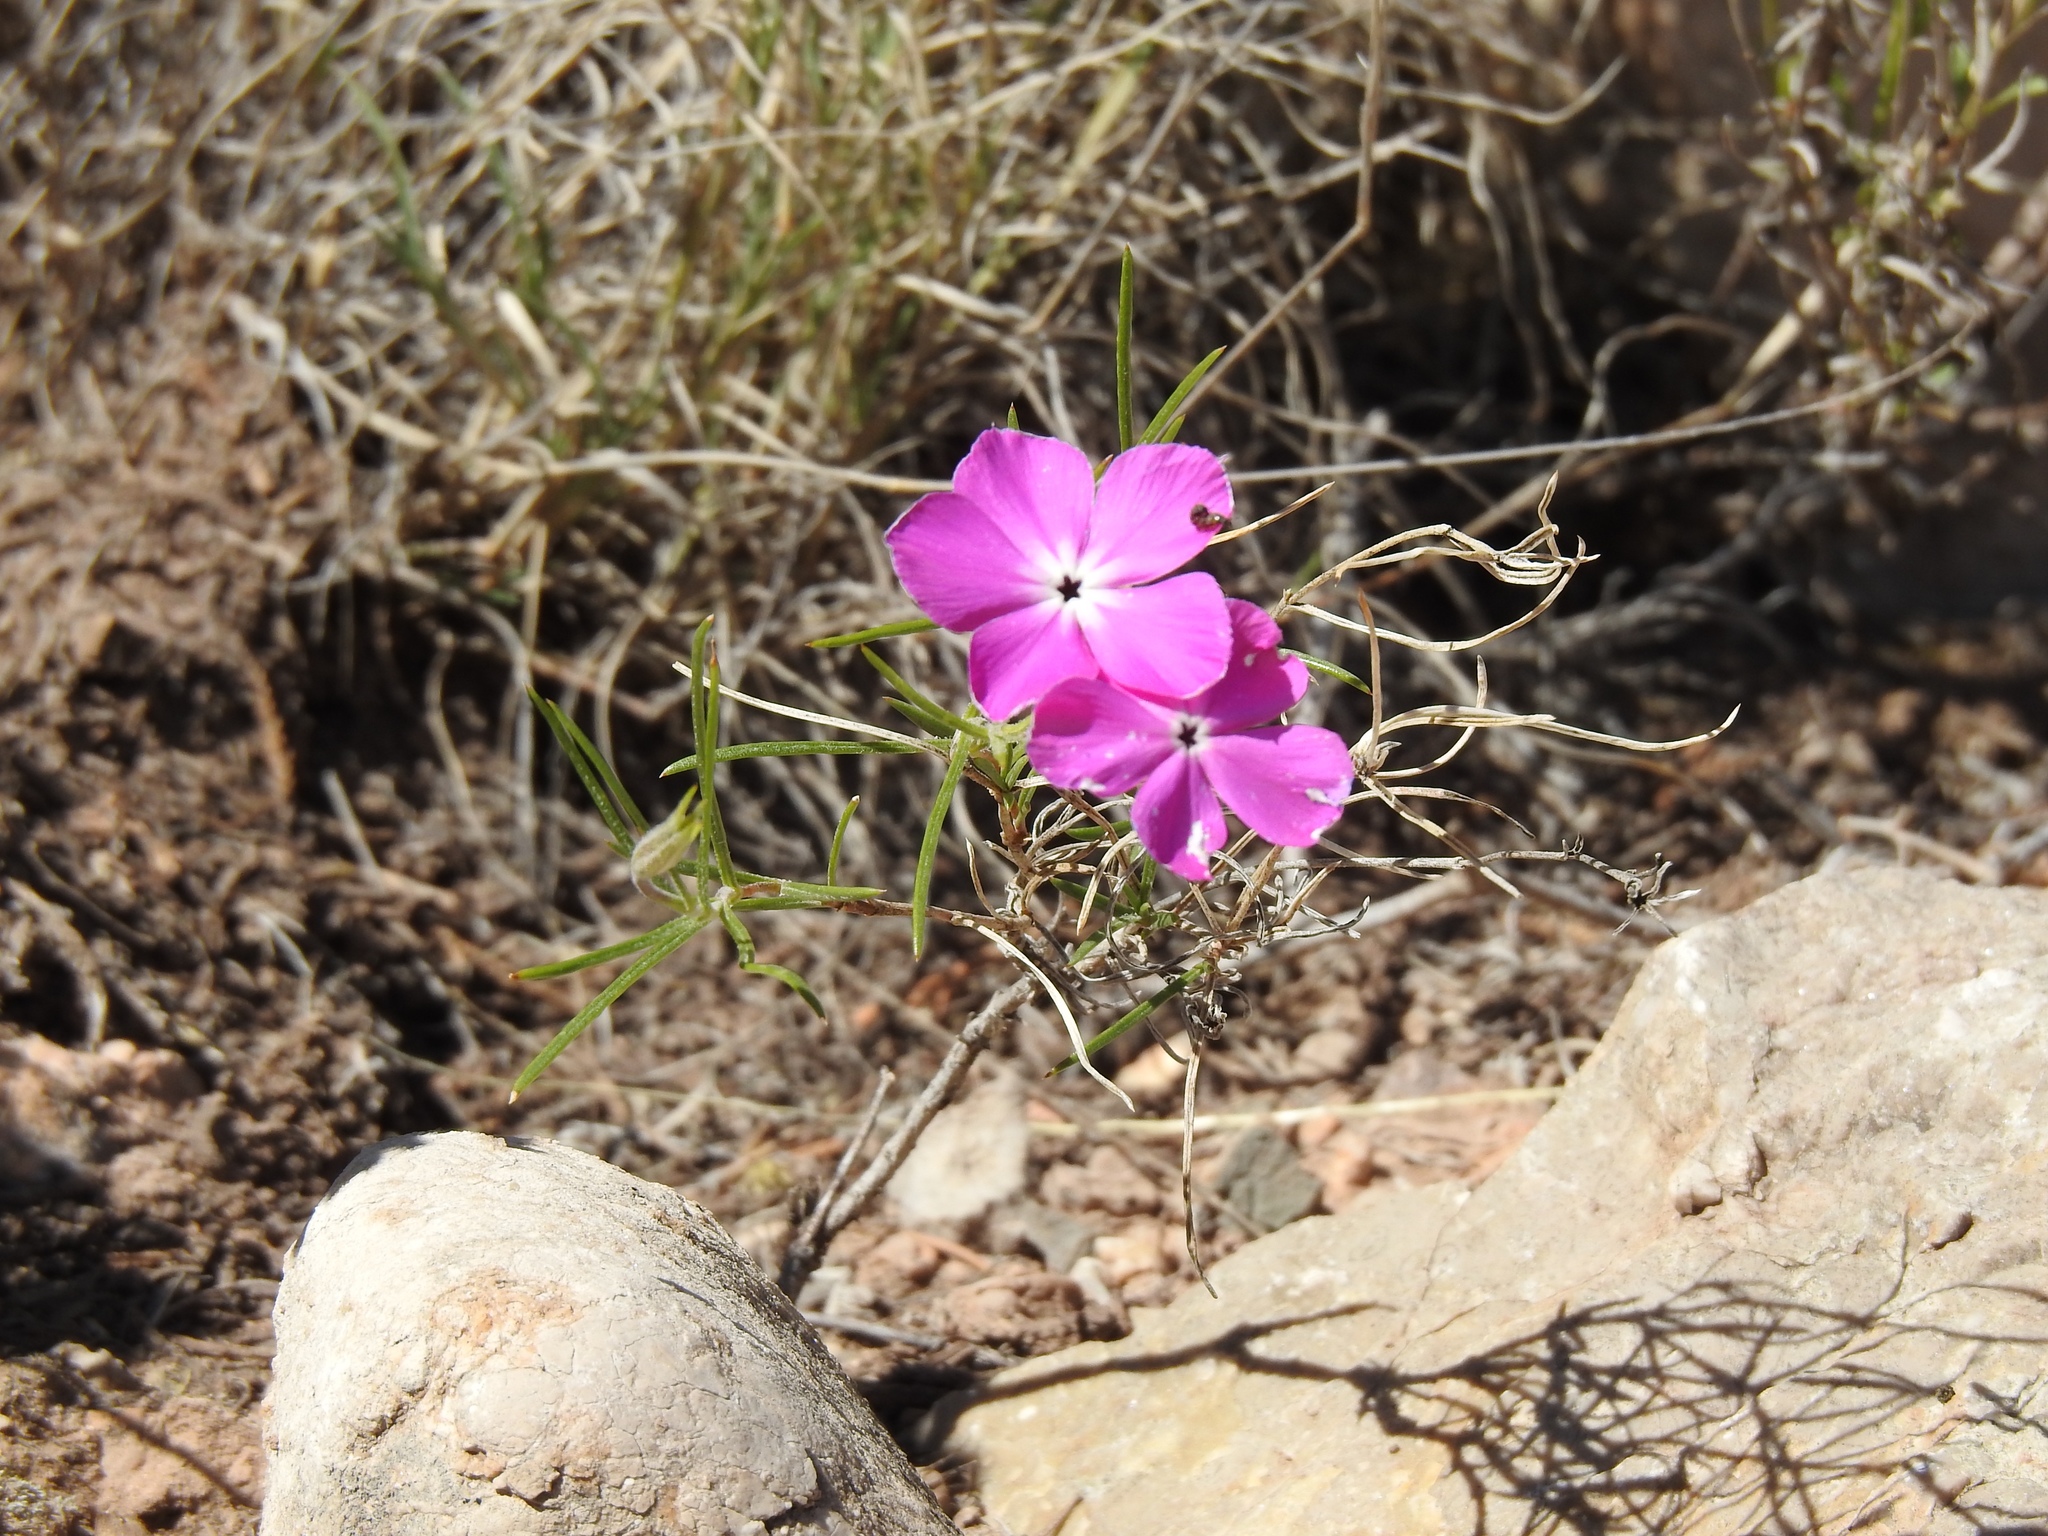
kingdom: Plantae
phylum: Tracheophyta
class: Magnoliopsida
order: Ericales
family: Polemoniaceae
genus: Phlox
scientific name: Phlox nana
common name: Santa fe phlox
